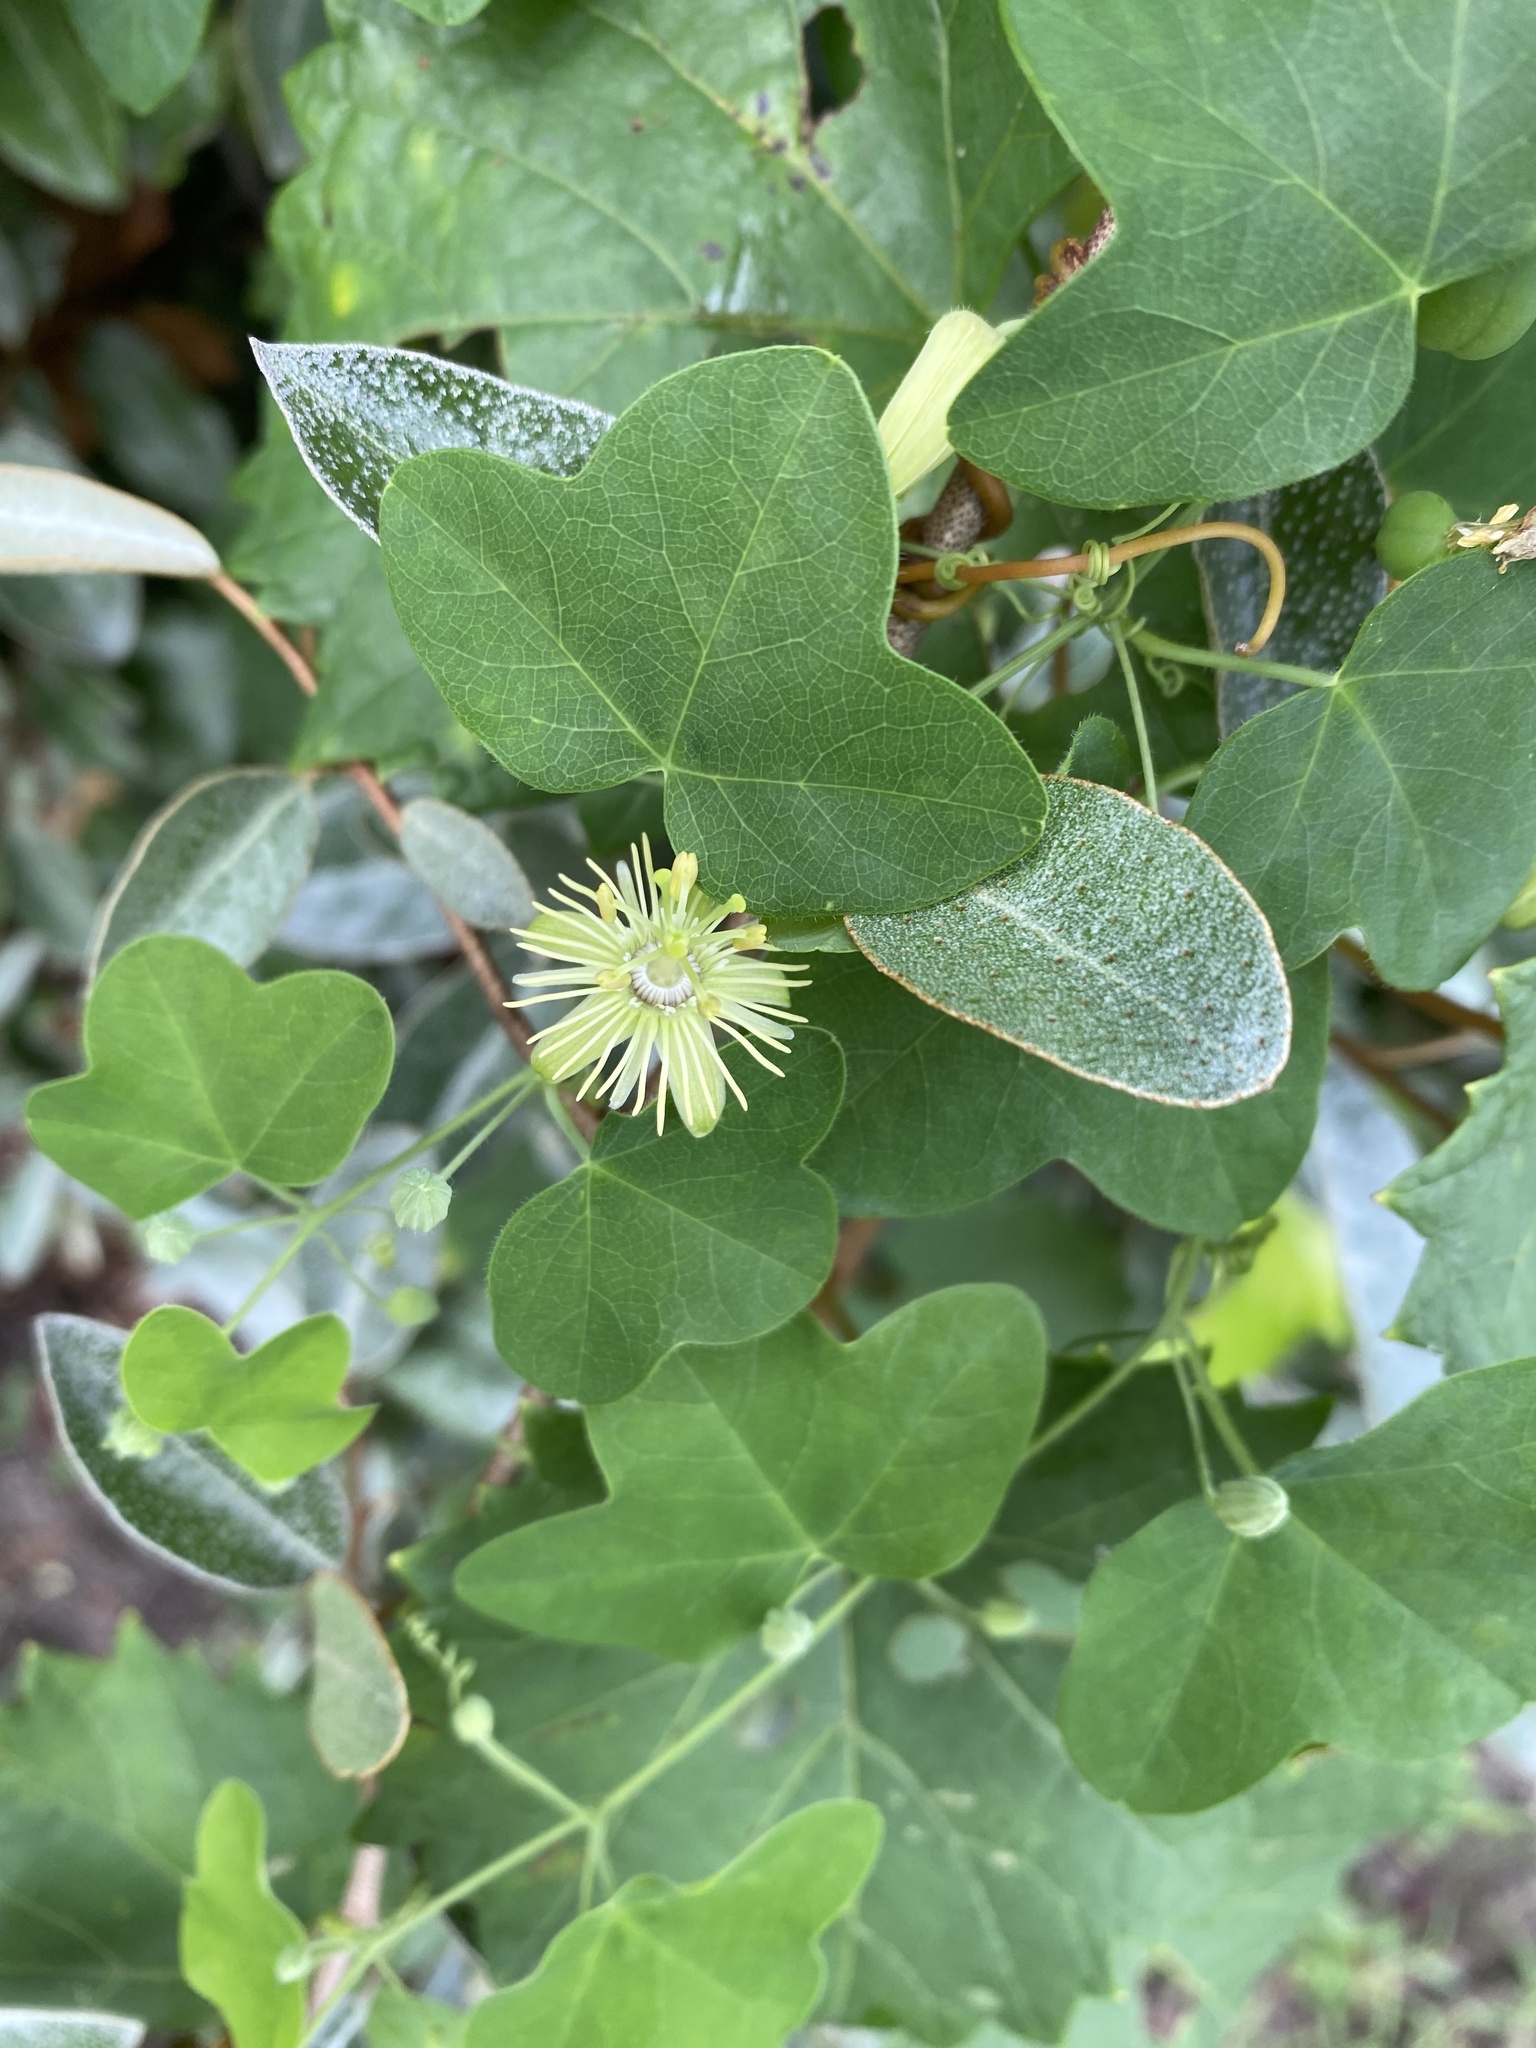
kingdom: Plantae
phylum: Tracheophyta
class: Magnoliopsida
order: Malpighiales
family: Passifloraceae
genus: Passiflora
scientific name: Passiflora lutea
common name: Yellow passionflower
